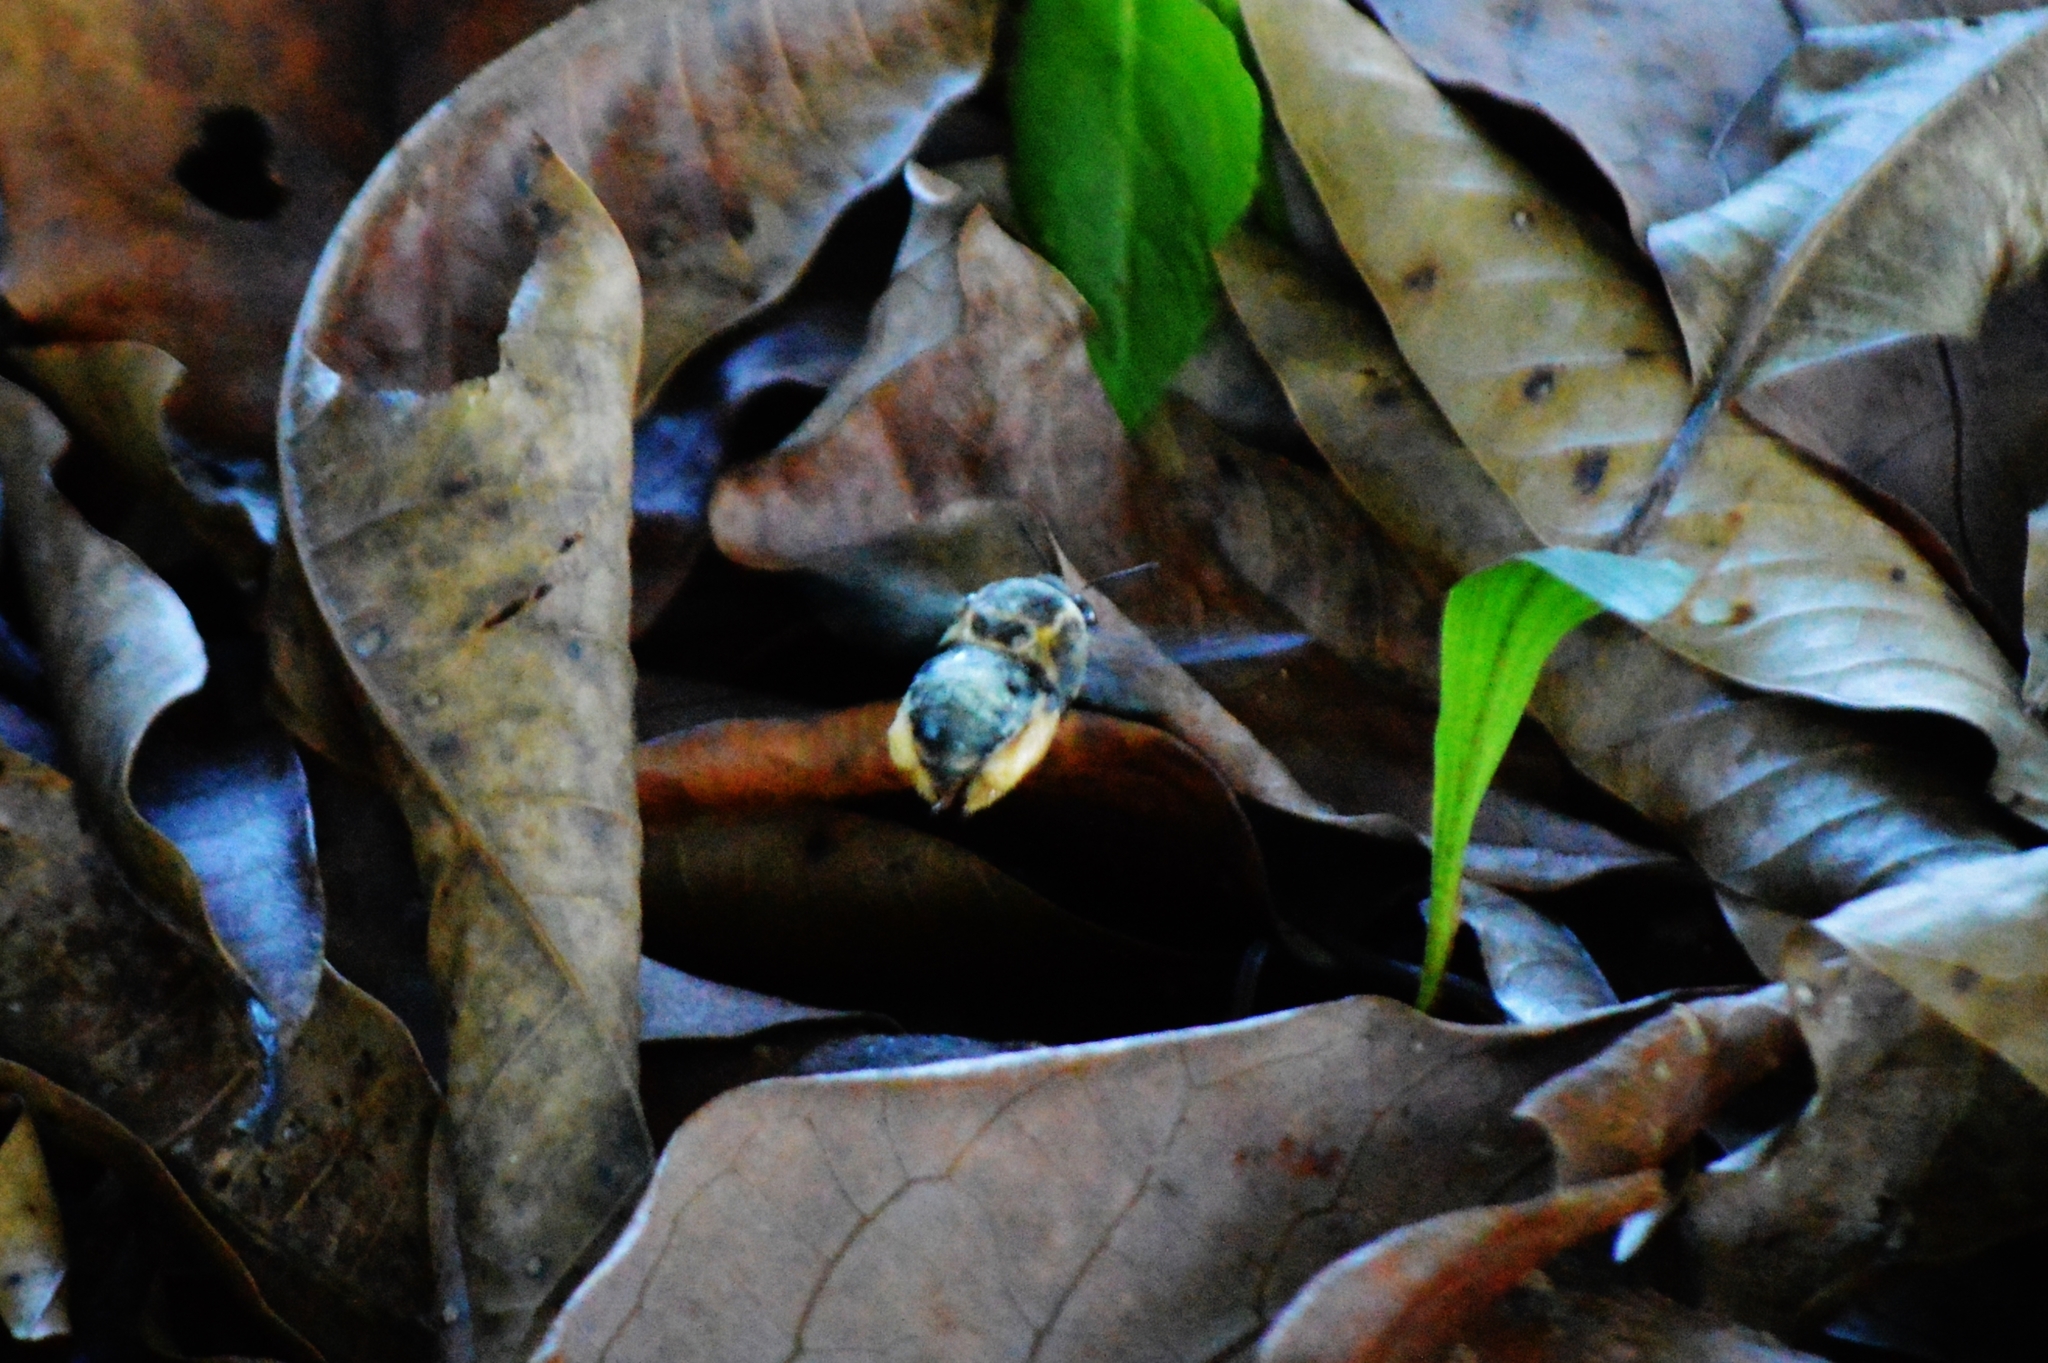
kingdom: Animalia
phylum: Arthropoda
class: Insecta
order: Hymenoptera
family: Apidae
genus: Centris
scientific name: Centris mocsaryi
